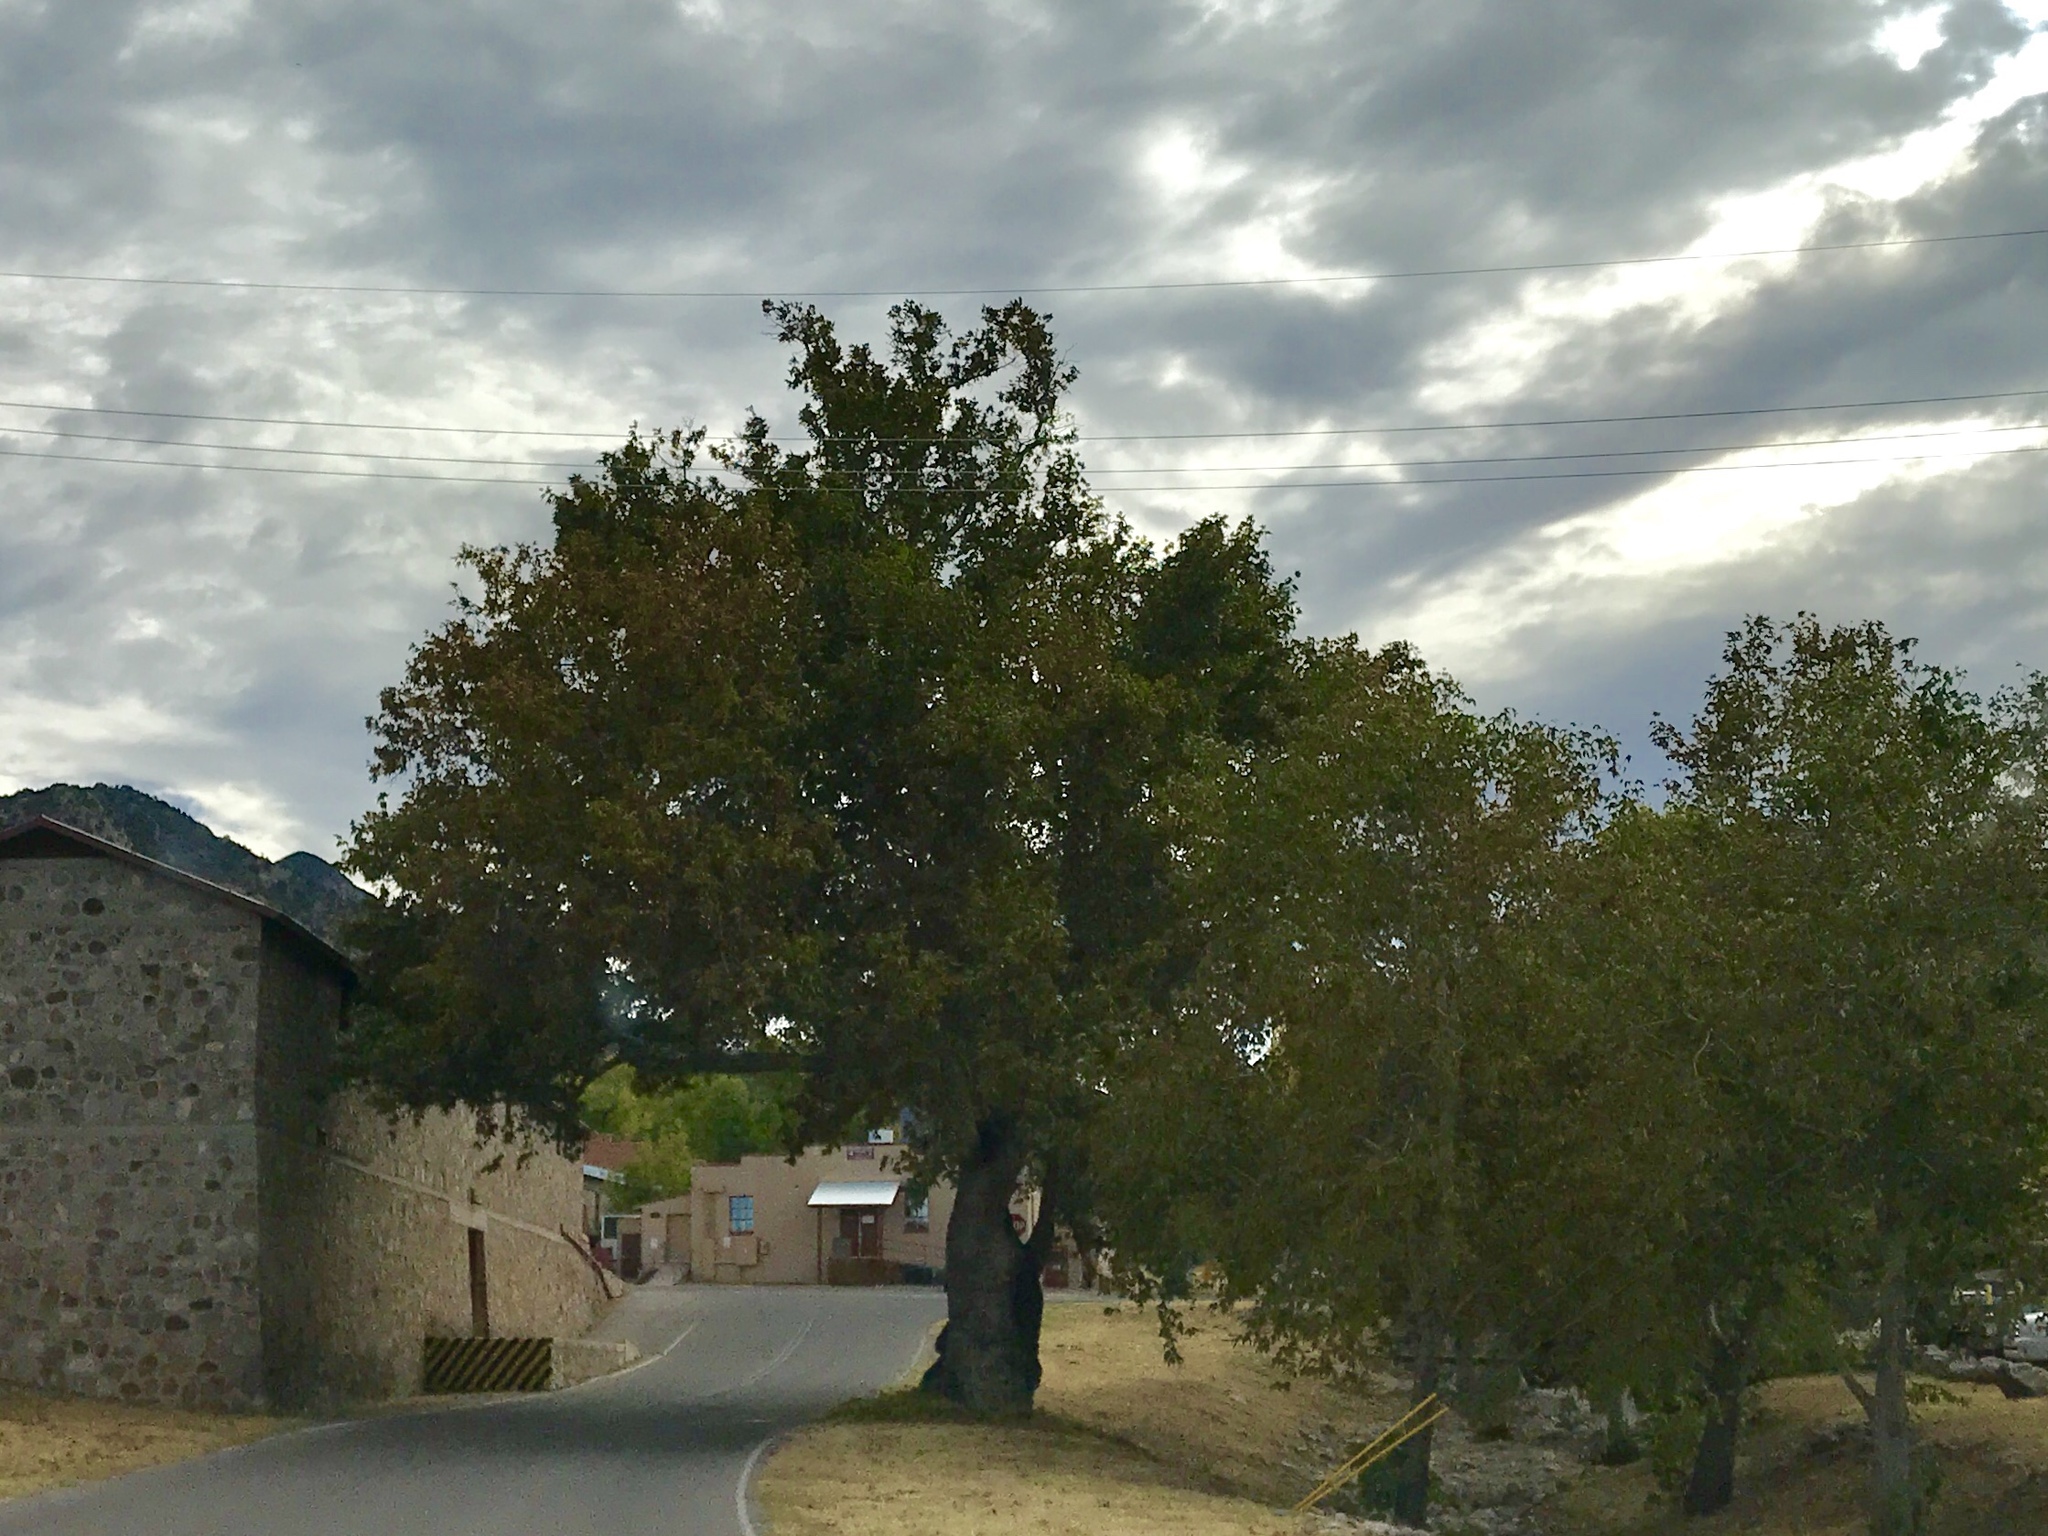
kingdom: Plantae
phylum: Tracheophyta
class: Magnoliopsida
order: Proteales
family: Platanaceae
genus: Platanus
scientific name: Platanus wrightii
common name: Arizona sycamore
